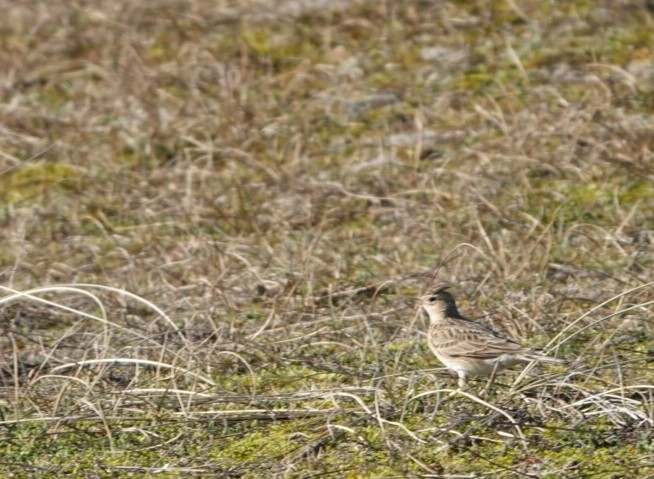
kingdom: Animalia
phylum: Chordata
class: Aves
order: Passeriformes
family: Alaudidae
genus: Alauda
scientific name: Alauda arvensis
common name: Eurasian skylark
